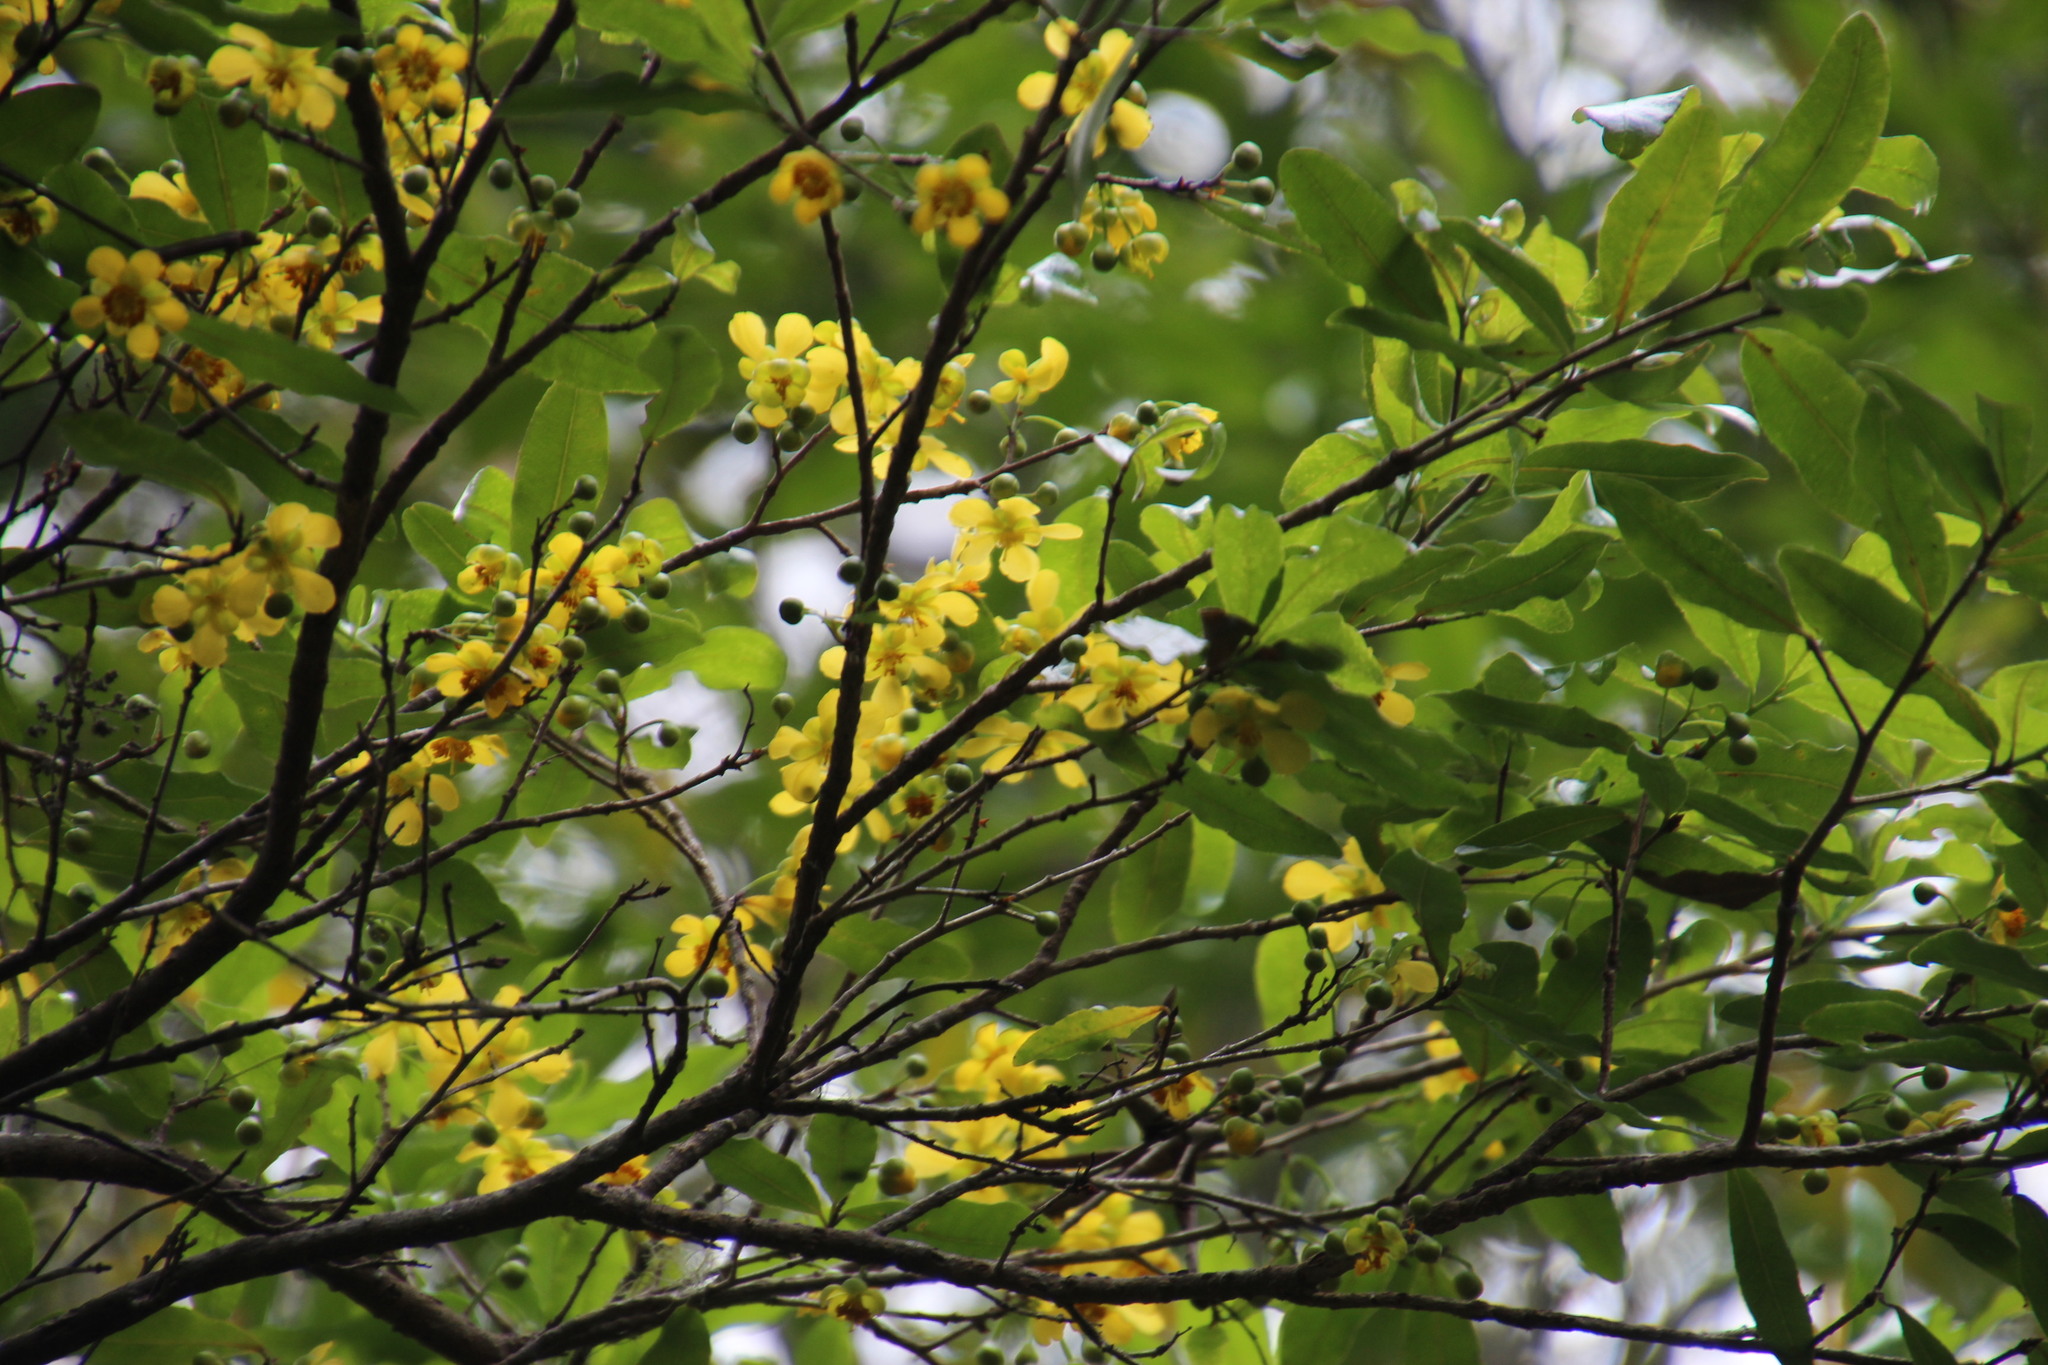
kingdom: Plantae
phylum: Tracheophyta
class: Magnoliopsida
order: Malpighiales
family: Ochnaceae
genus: Ochna
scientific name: Ochna serrulata
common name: Mickey mouse plant
